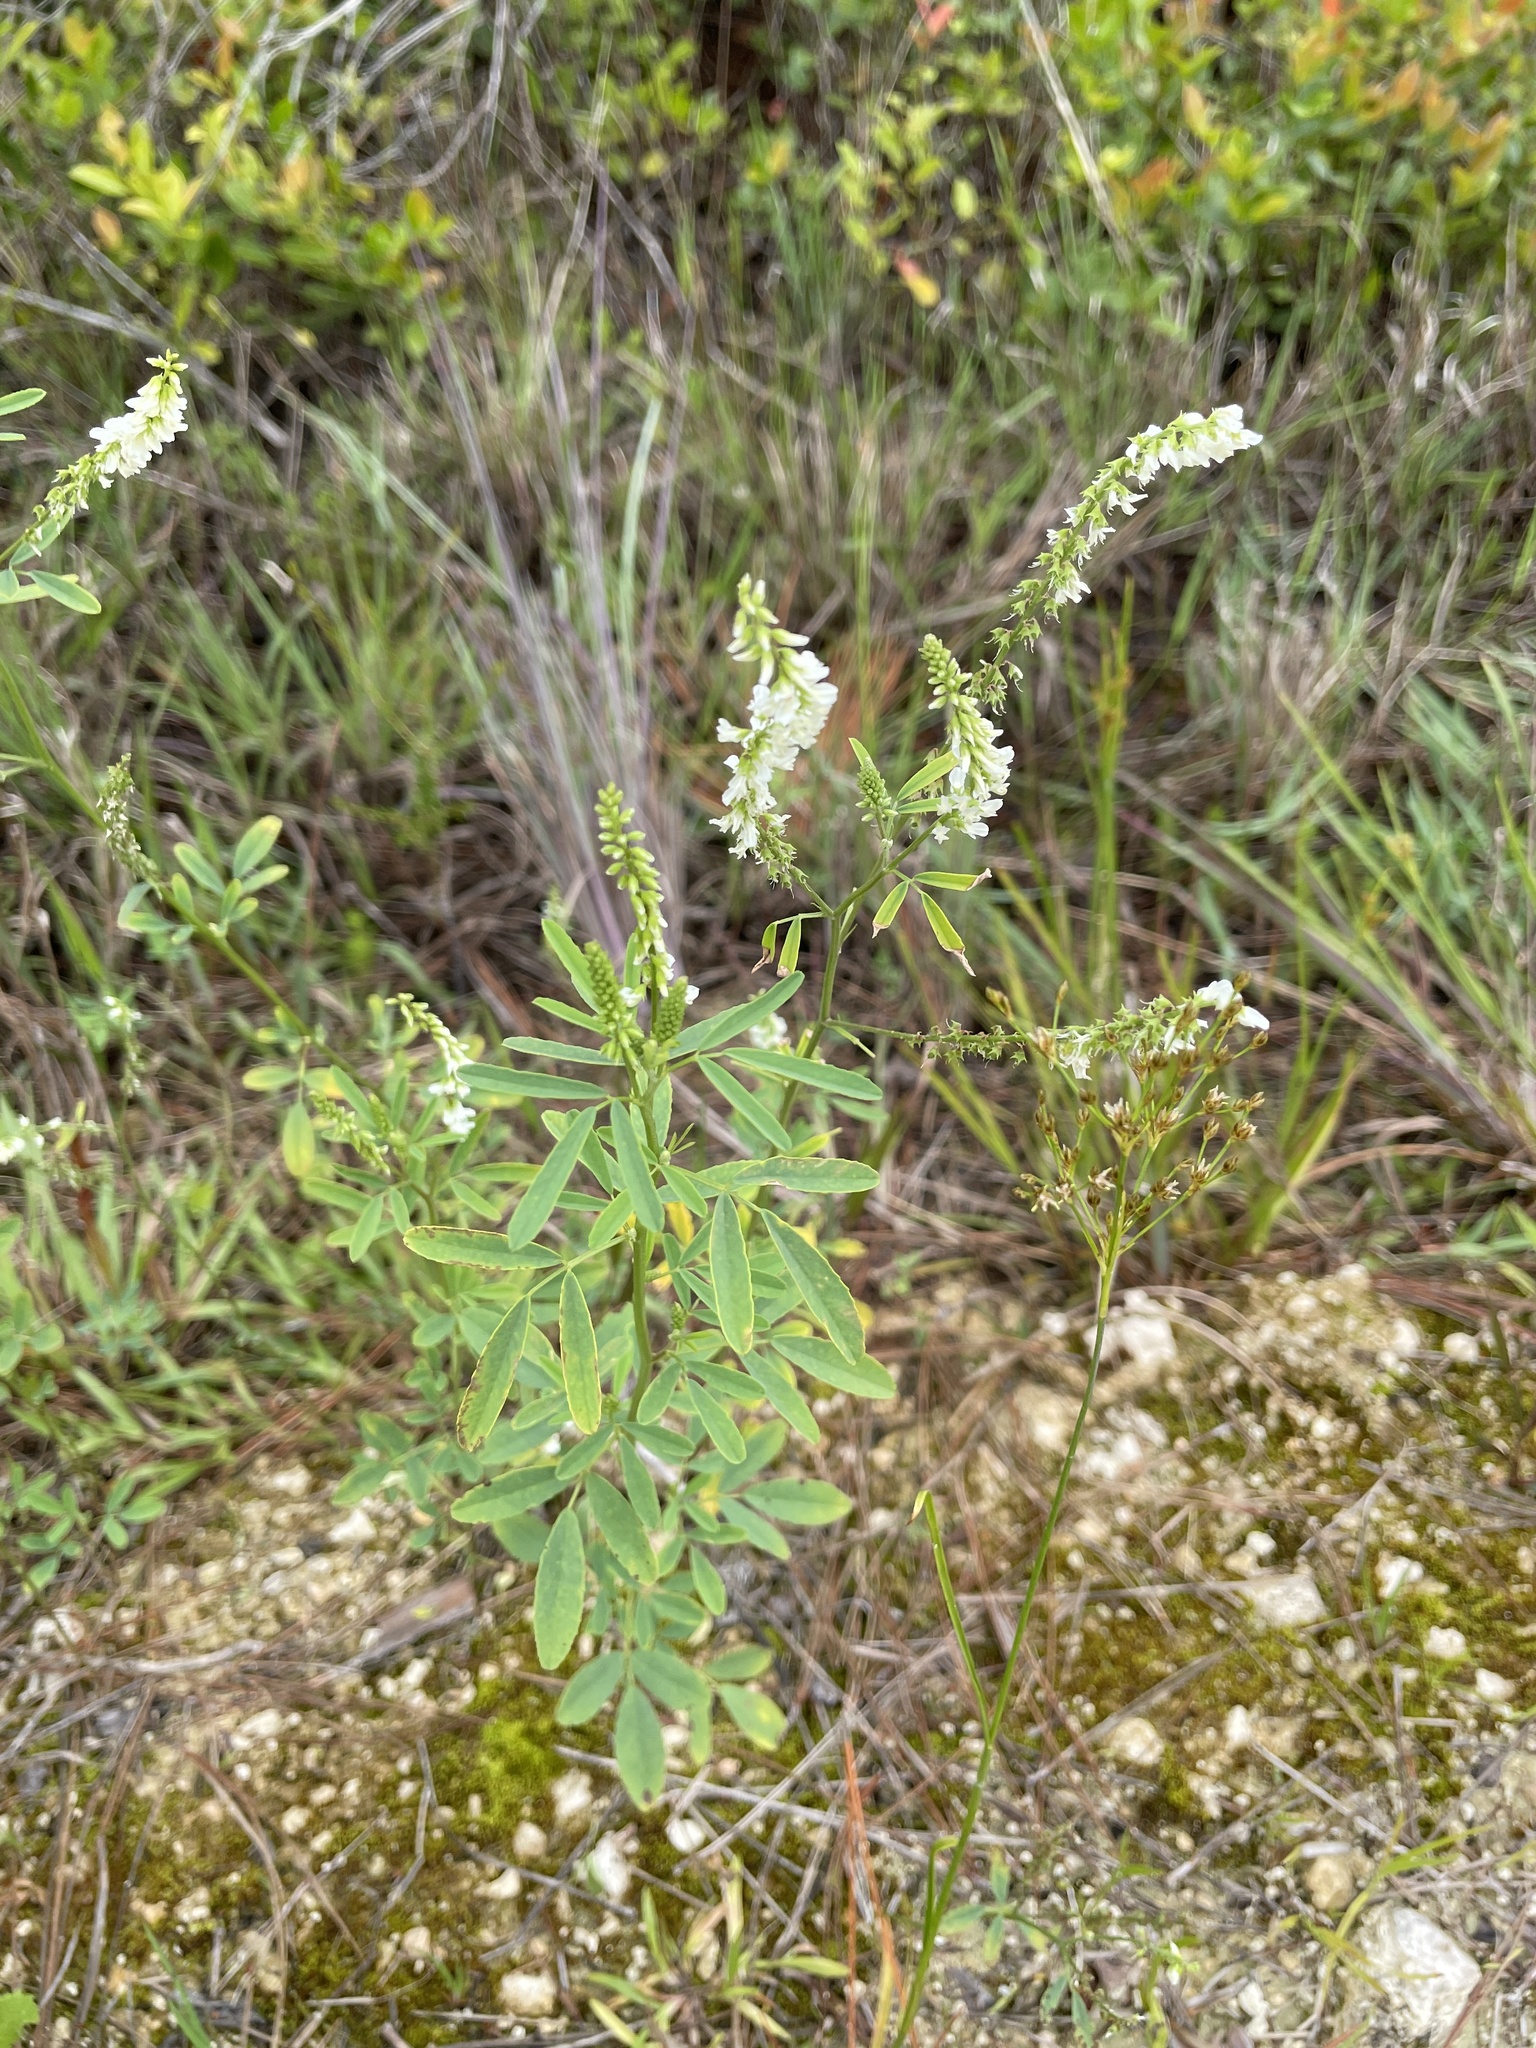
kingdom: Plantae
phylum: Tracheophyta
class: Magnoliopsida
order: Fabales
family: Fabaceae
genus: Melilotus
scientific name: Melilotus albus
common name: White melilot
